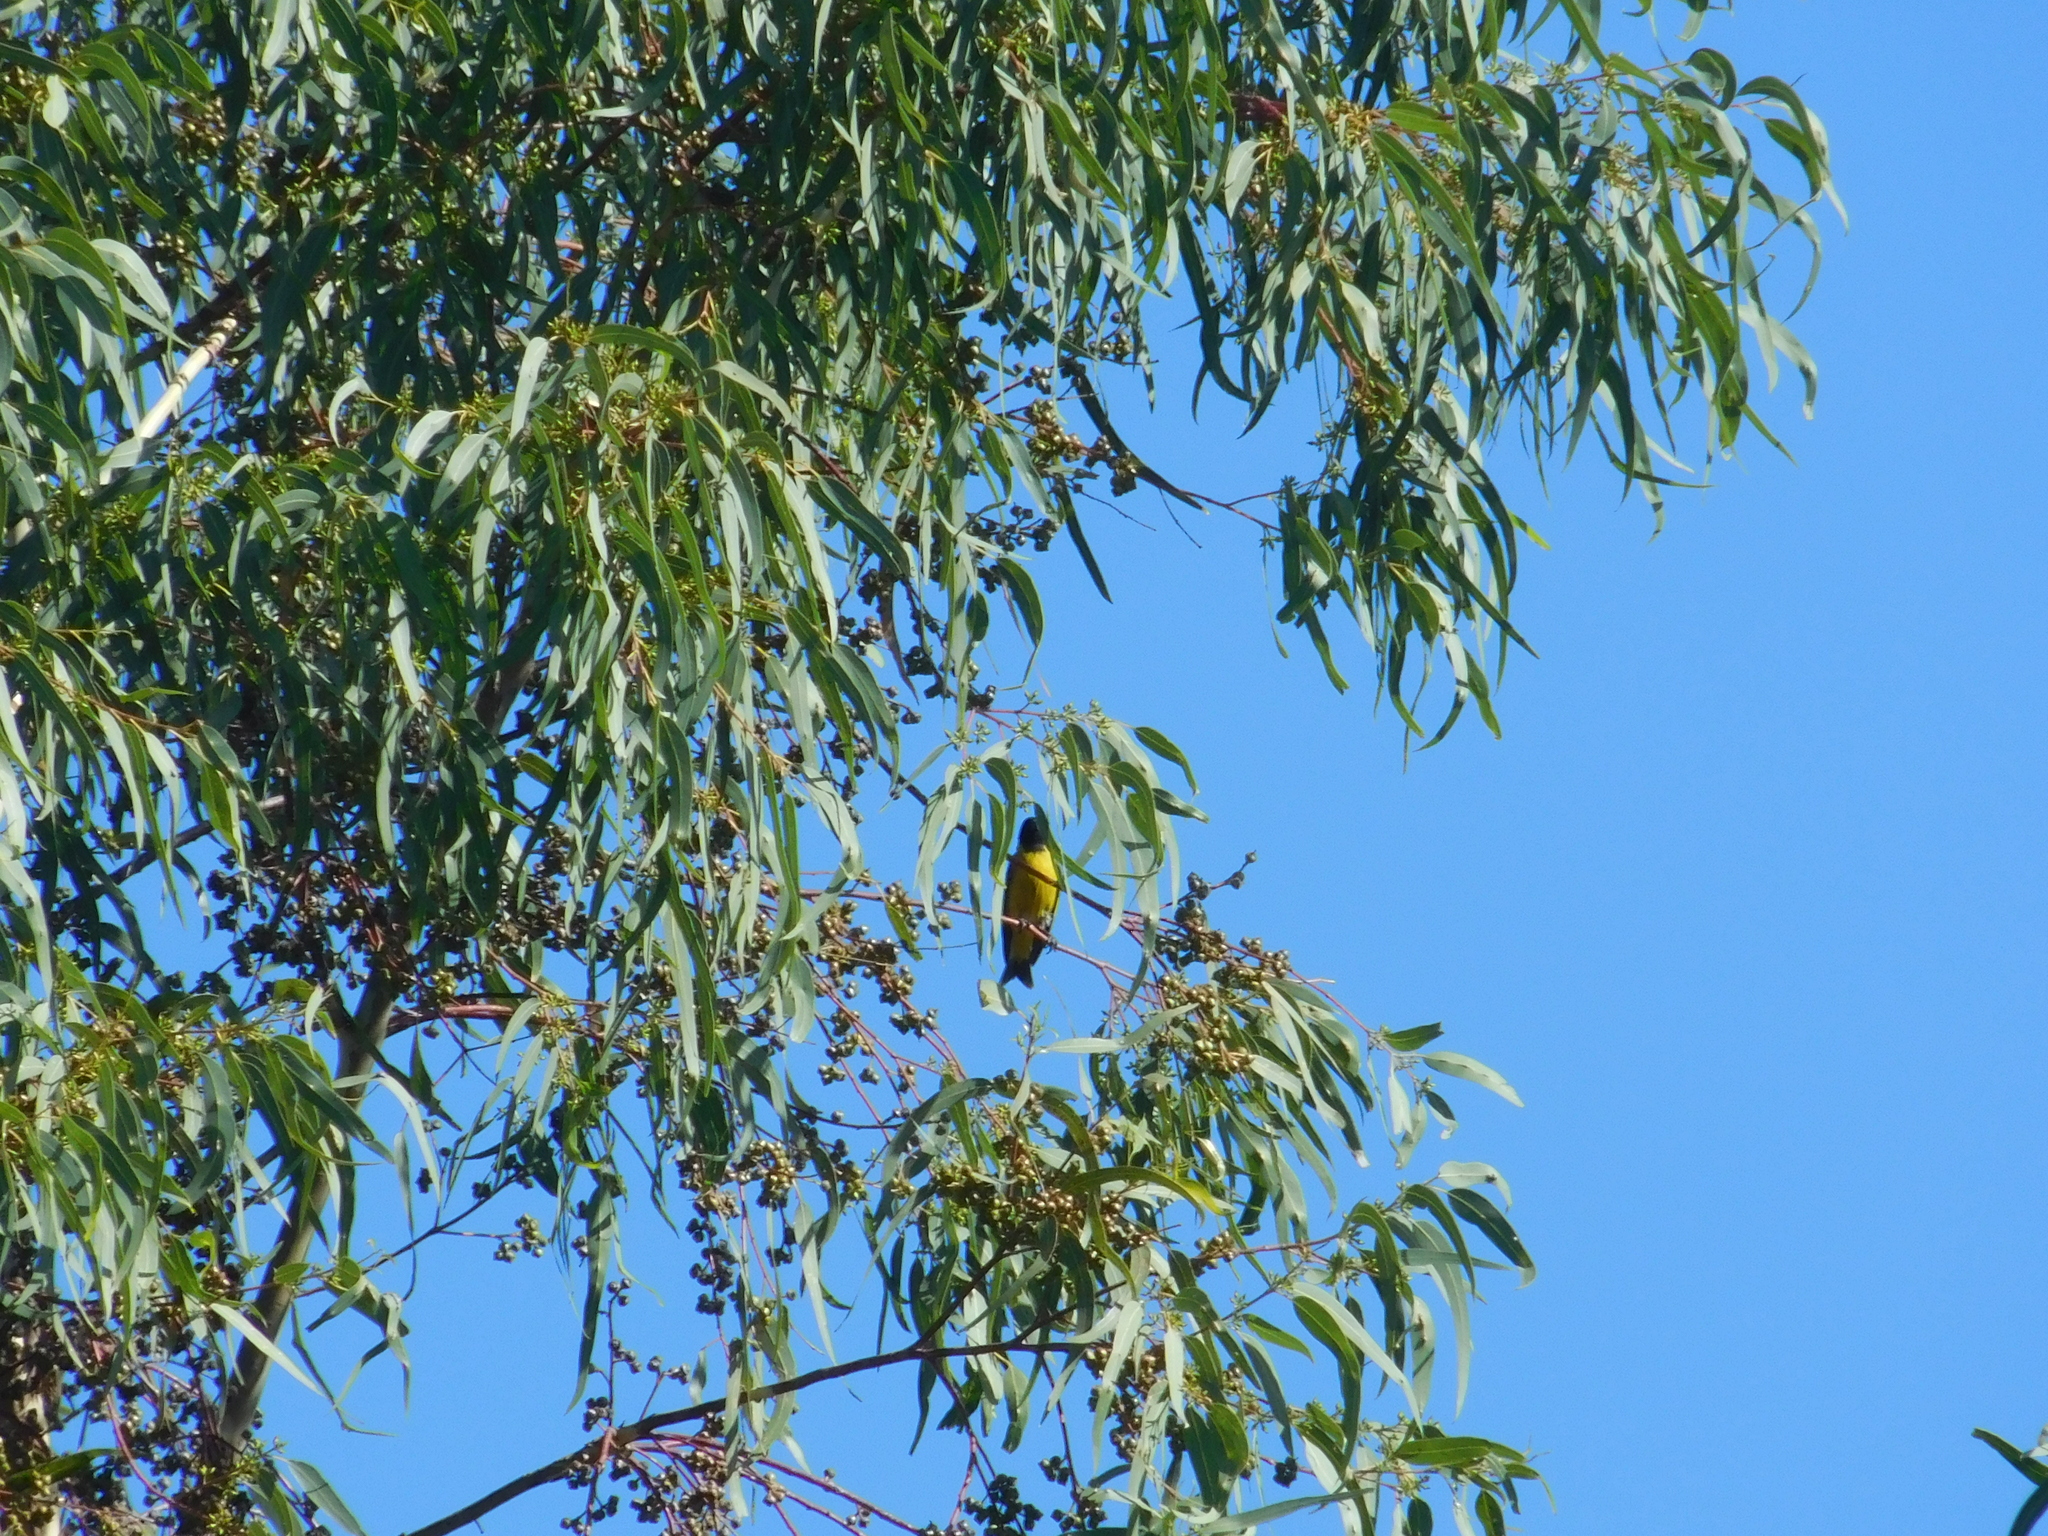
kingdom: Animalia
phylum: Chordata
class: Aves
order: Passeriformes
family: Fringillidae
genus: Spinus
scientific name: Spinus magellanicus
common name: Hooded siskin
